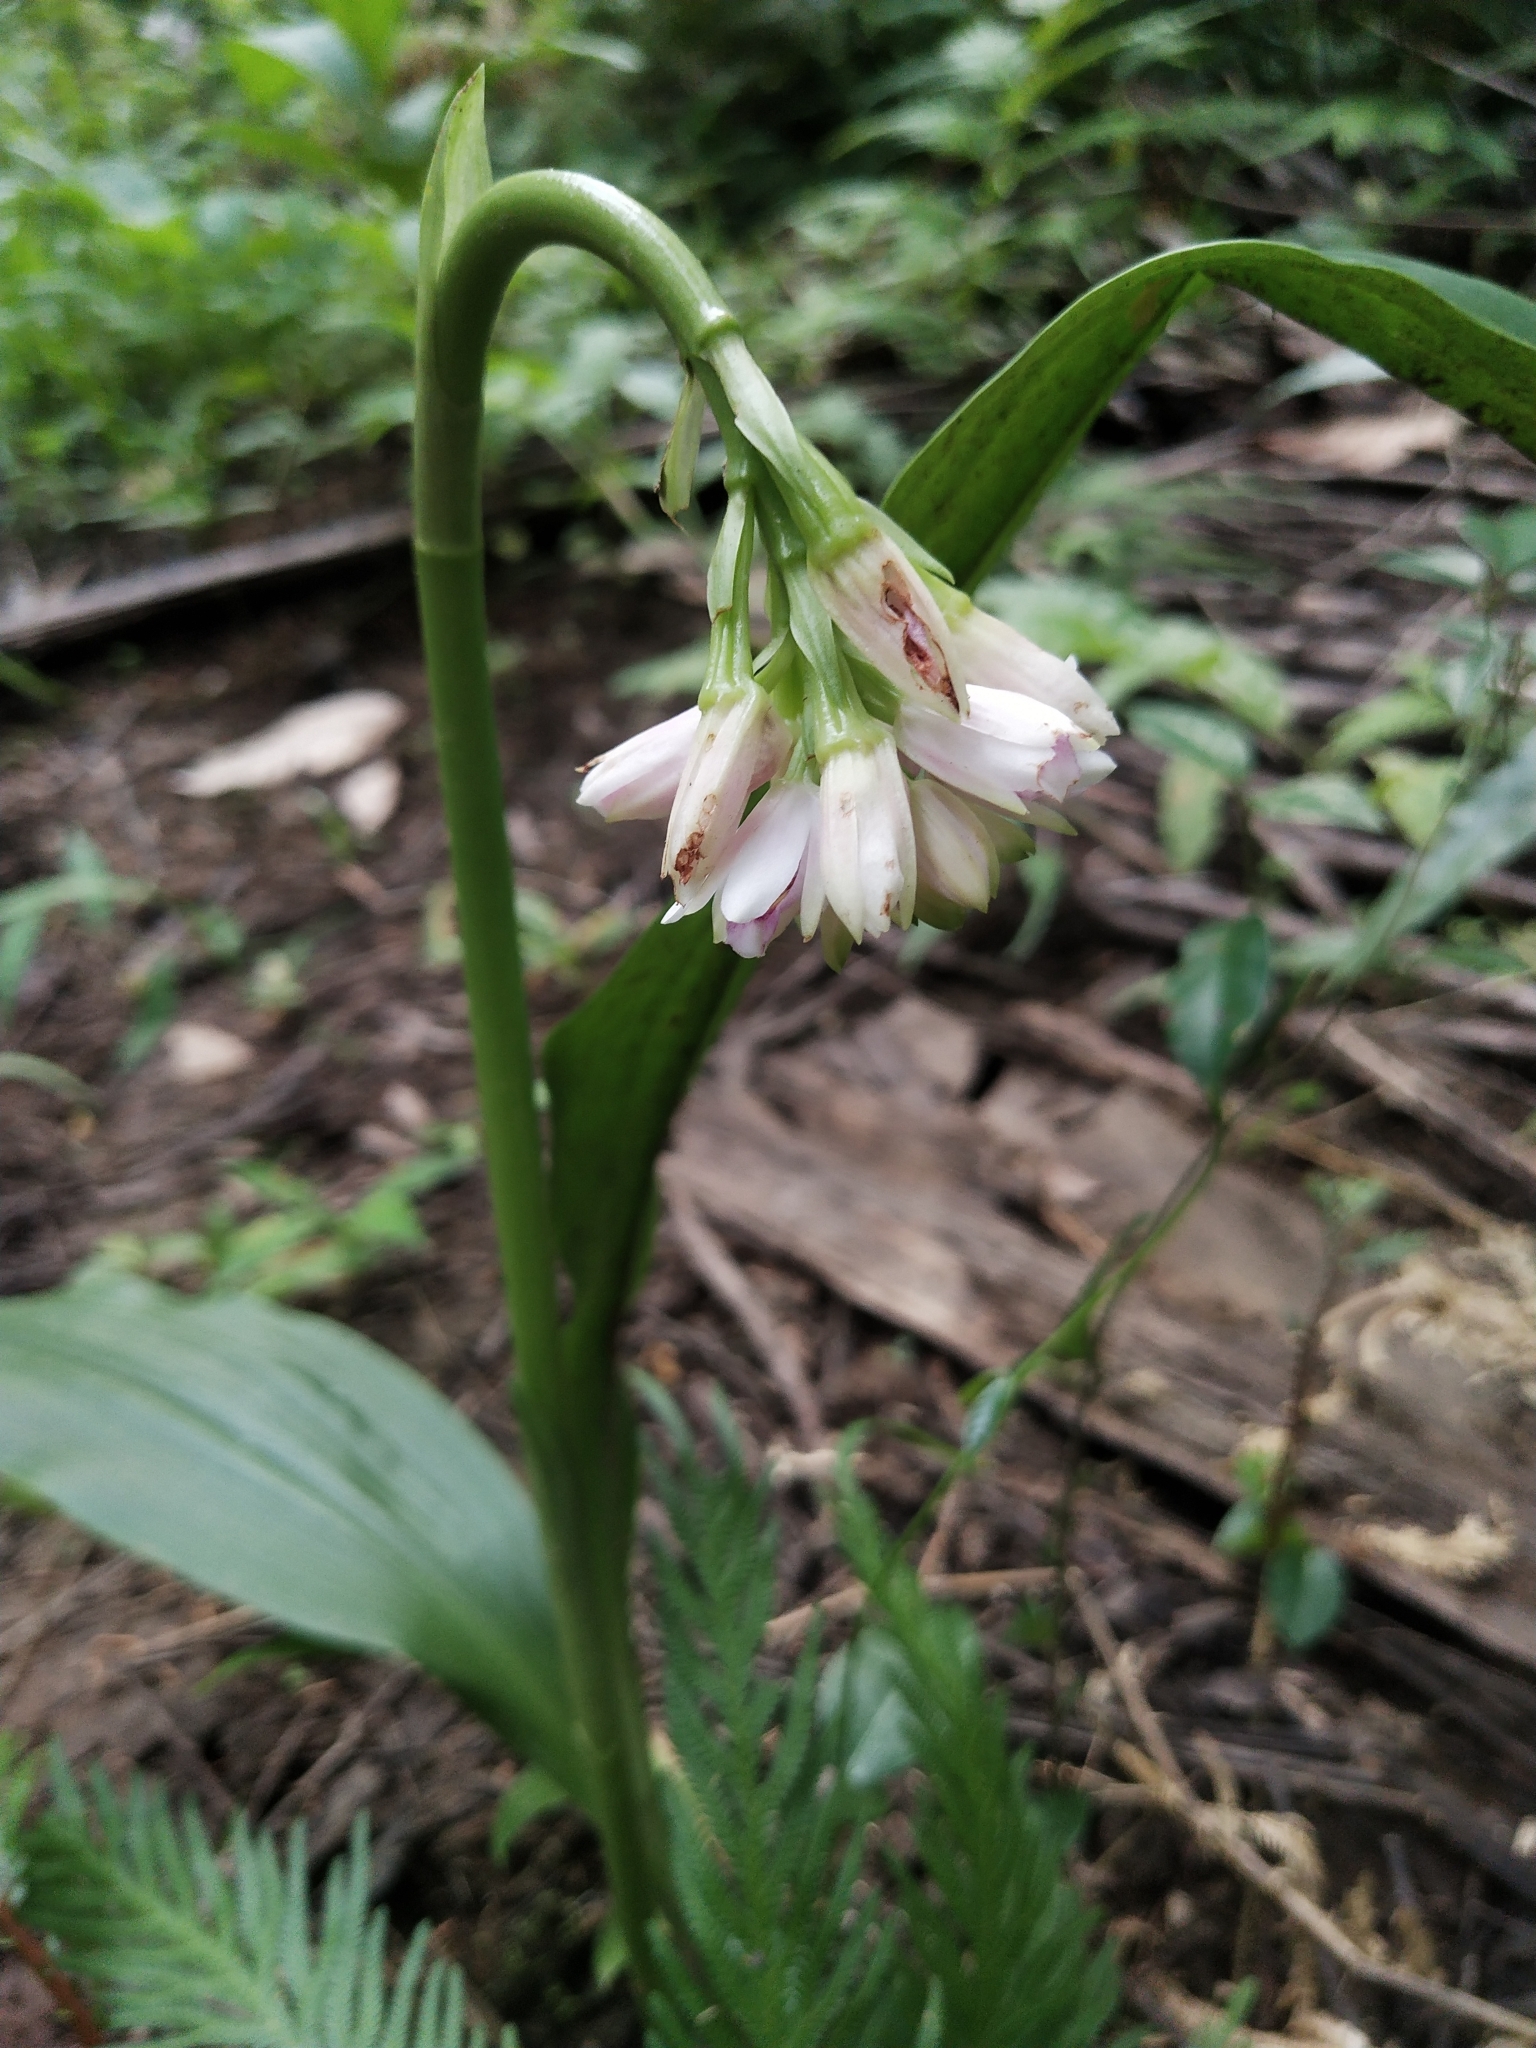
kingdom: Plantae
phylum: Tracheophyta
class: Liliopsida
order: Asparagales
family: Orchidaceae
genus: Eulophia
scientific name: Eulophia cernua
